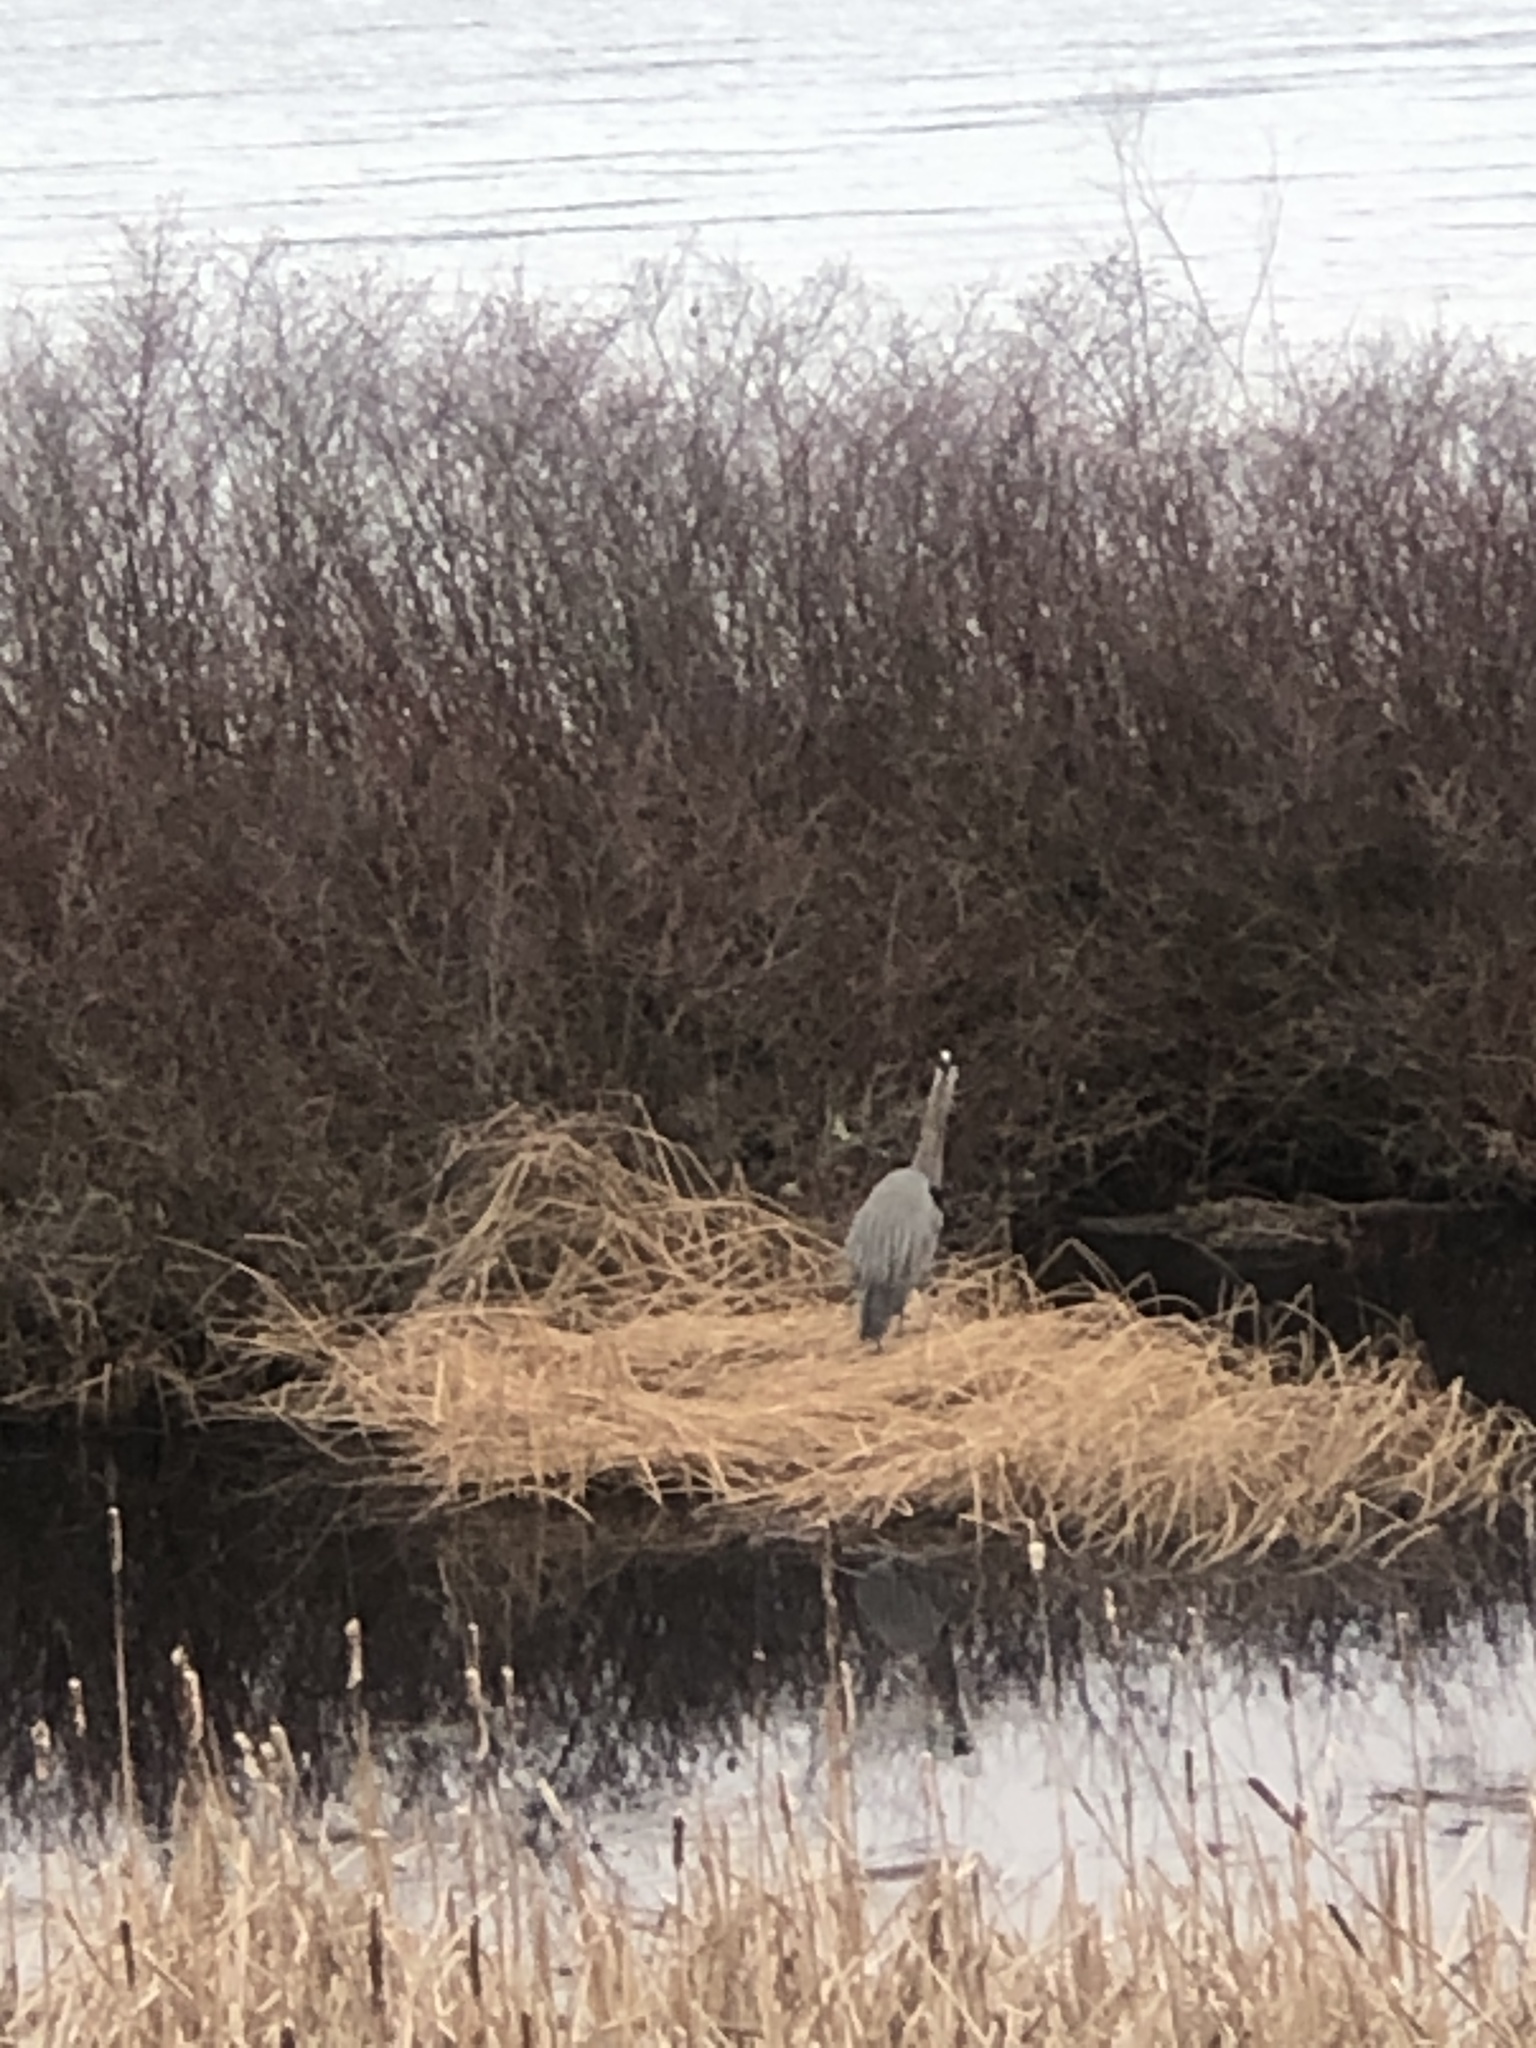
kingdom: Animalia
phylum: Chordata
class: Aves
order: Pelecaniformes
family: Ardeidae
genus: Ardea
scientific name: Ardea herodias
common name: Great blue heron
